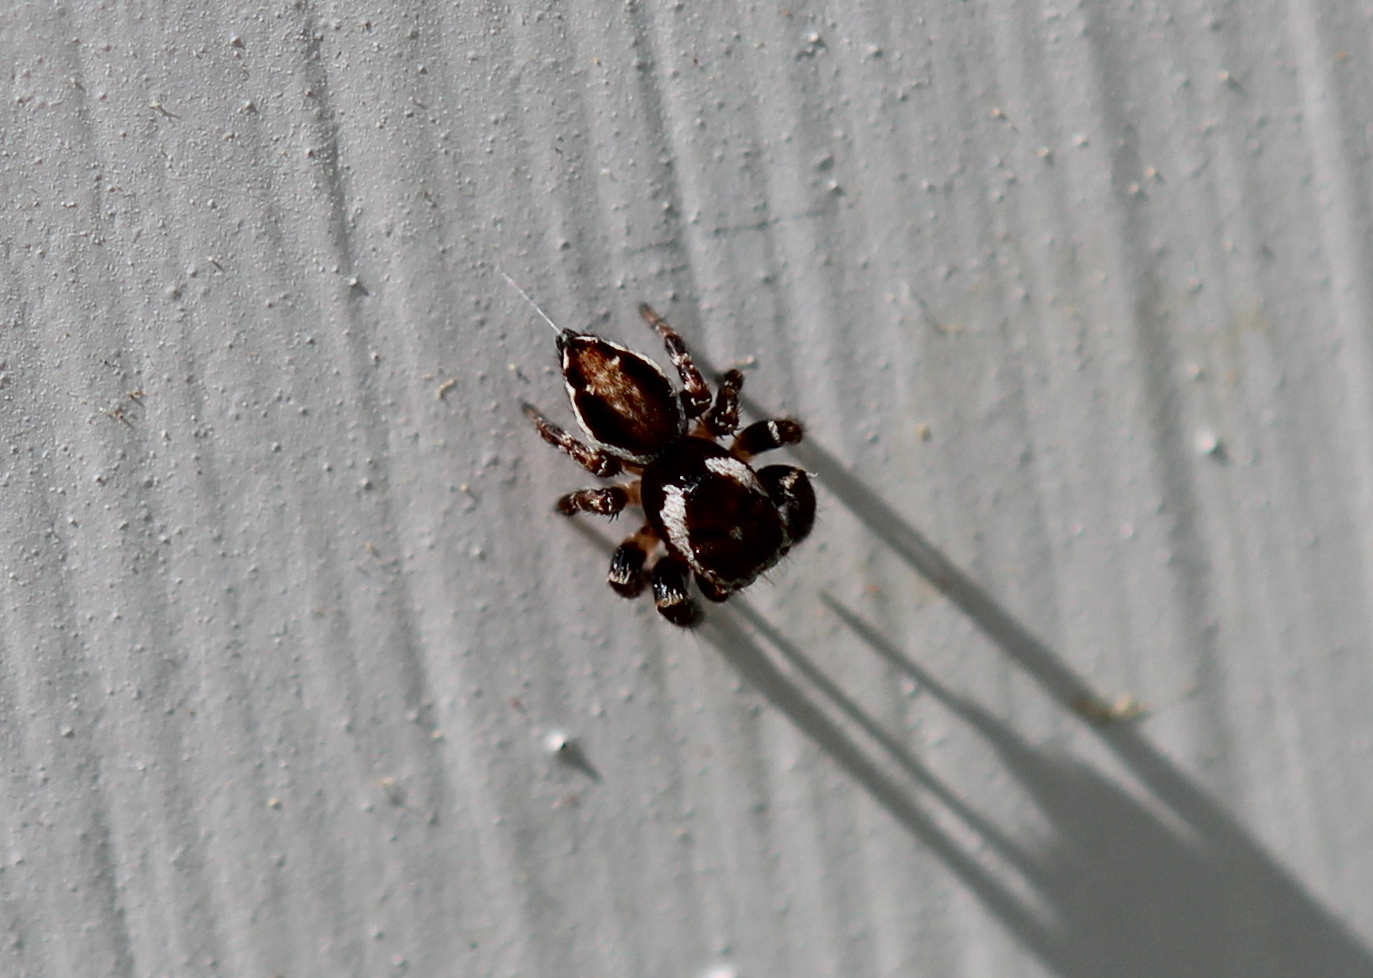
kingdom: Animalia
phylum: Arthropoda
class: Arachnida
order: Araneae
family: Salticidae
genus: Evarcha
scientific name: Evarcha hoyi
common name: Hoy's jumping spider
